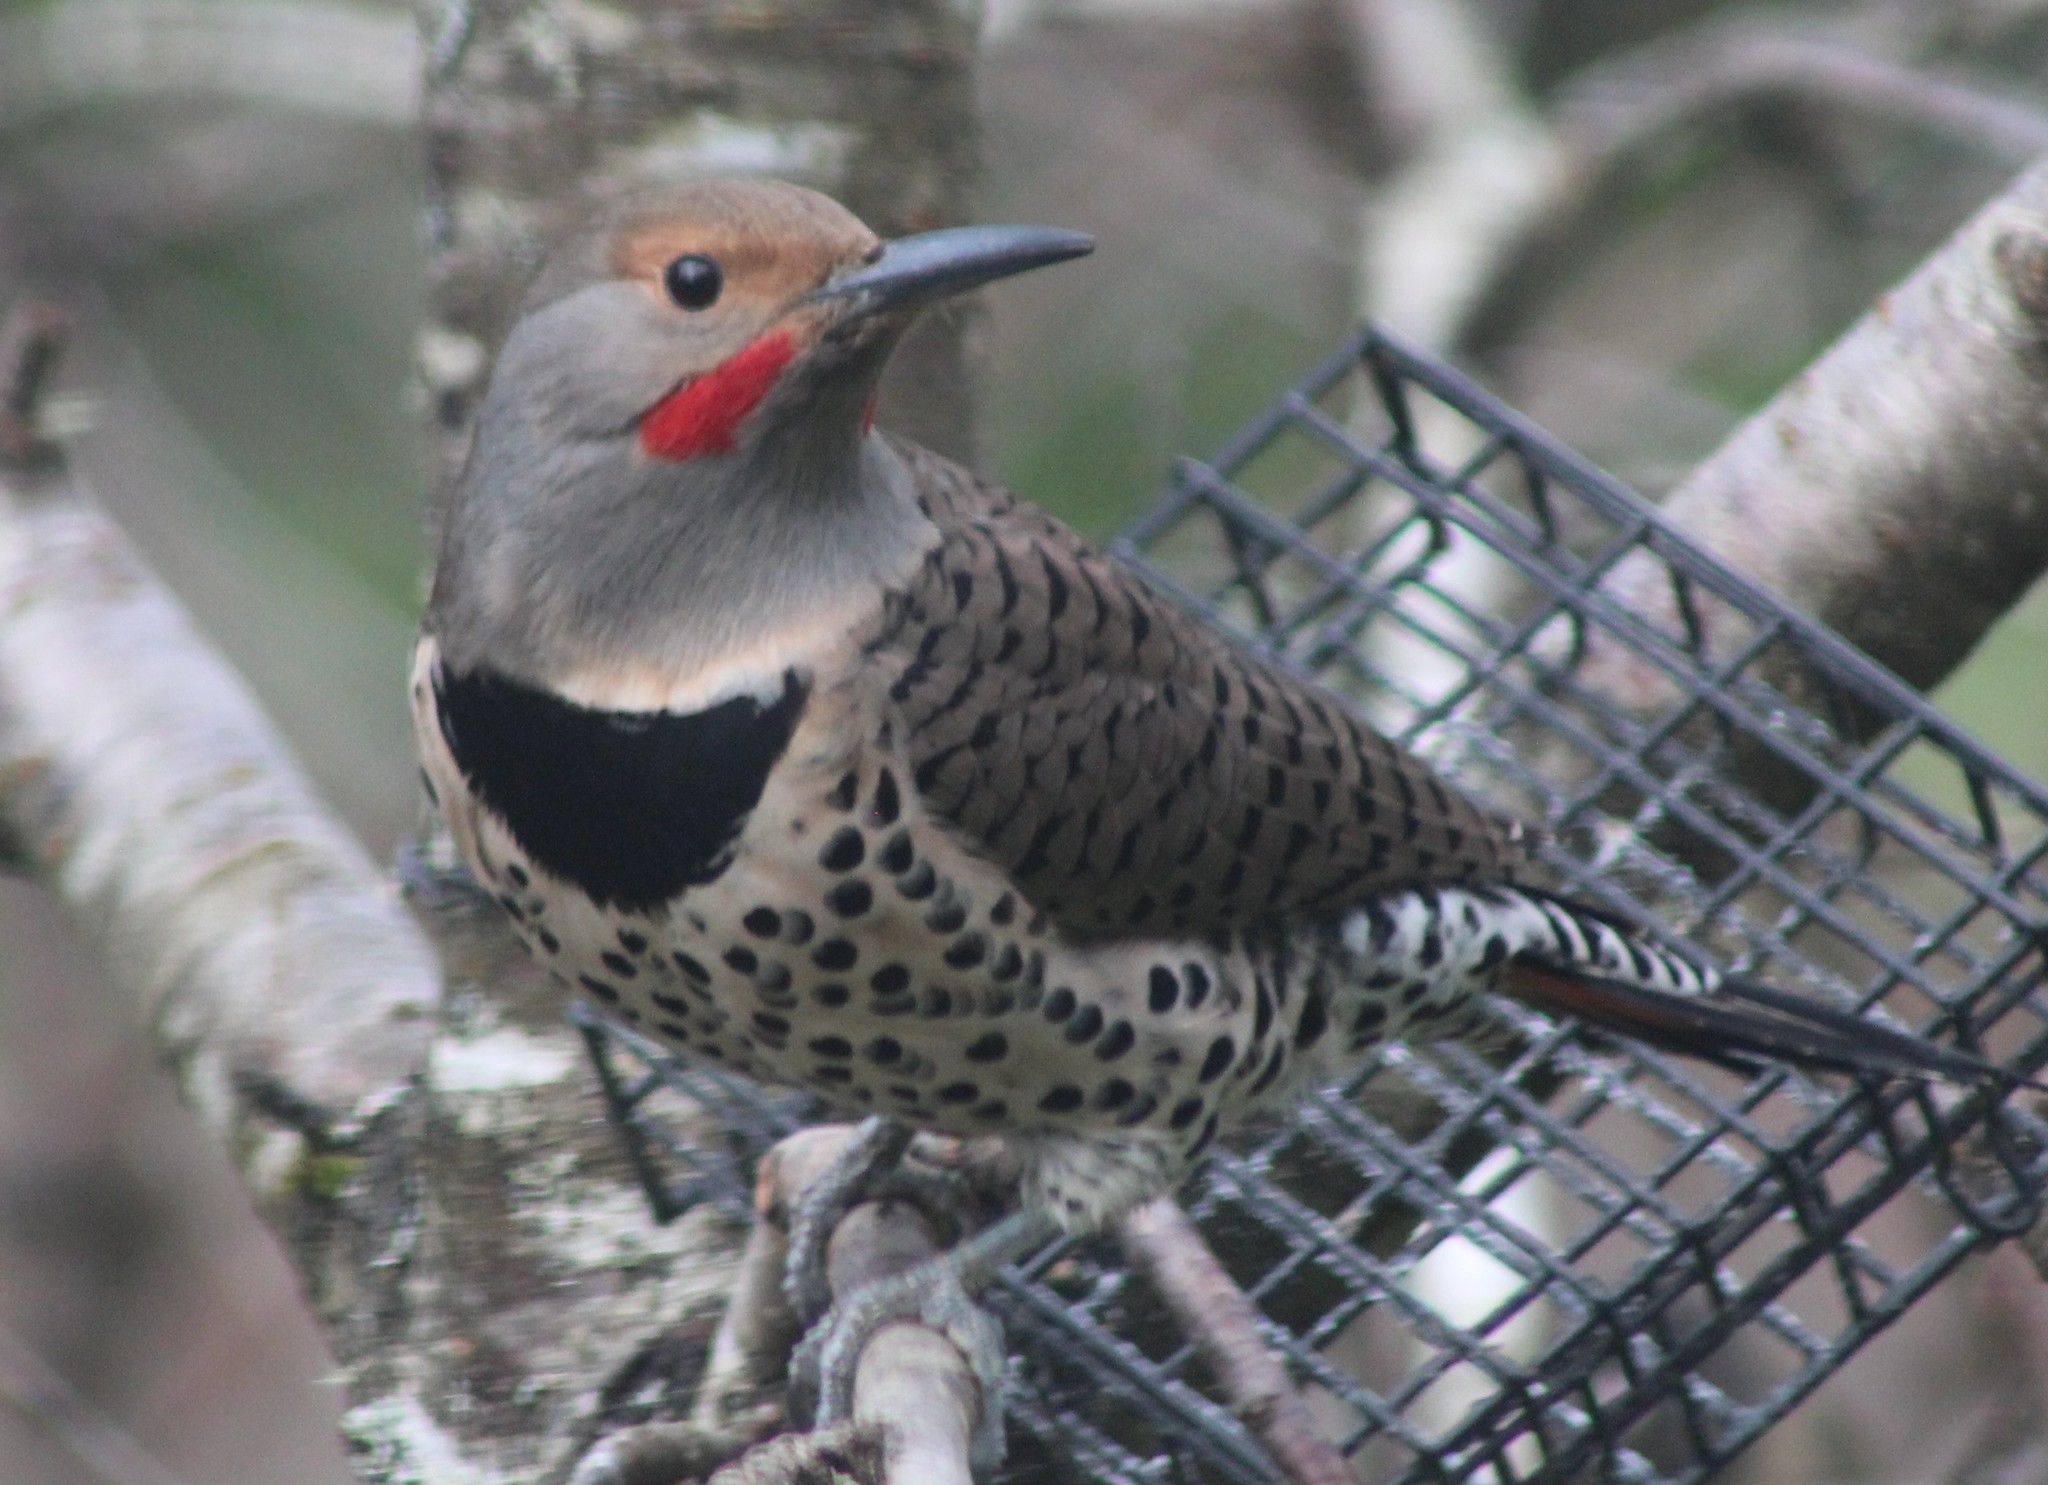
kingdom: Animalia
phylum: Chordata
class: Aves
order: Piciformes
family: Picidae
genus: Colaptes
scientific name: Colaptes auratus
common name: Northern flicker
